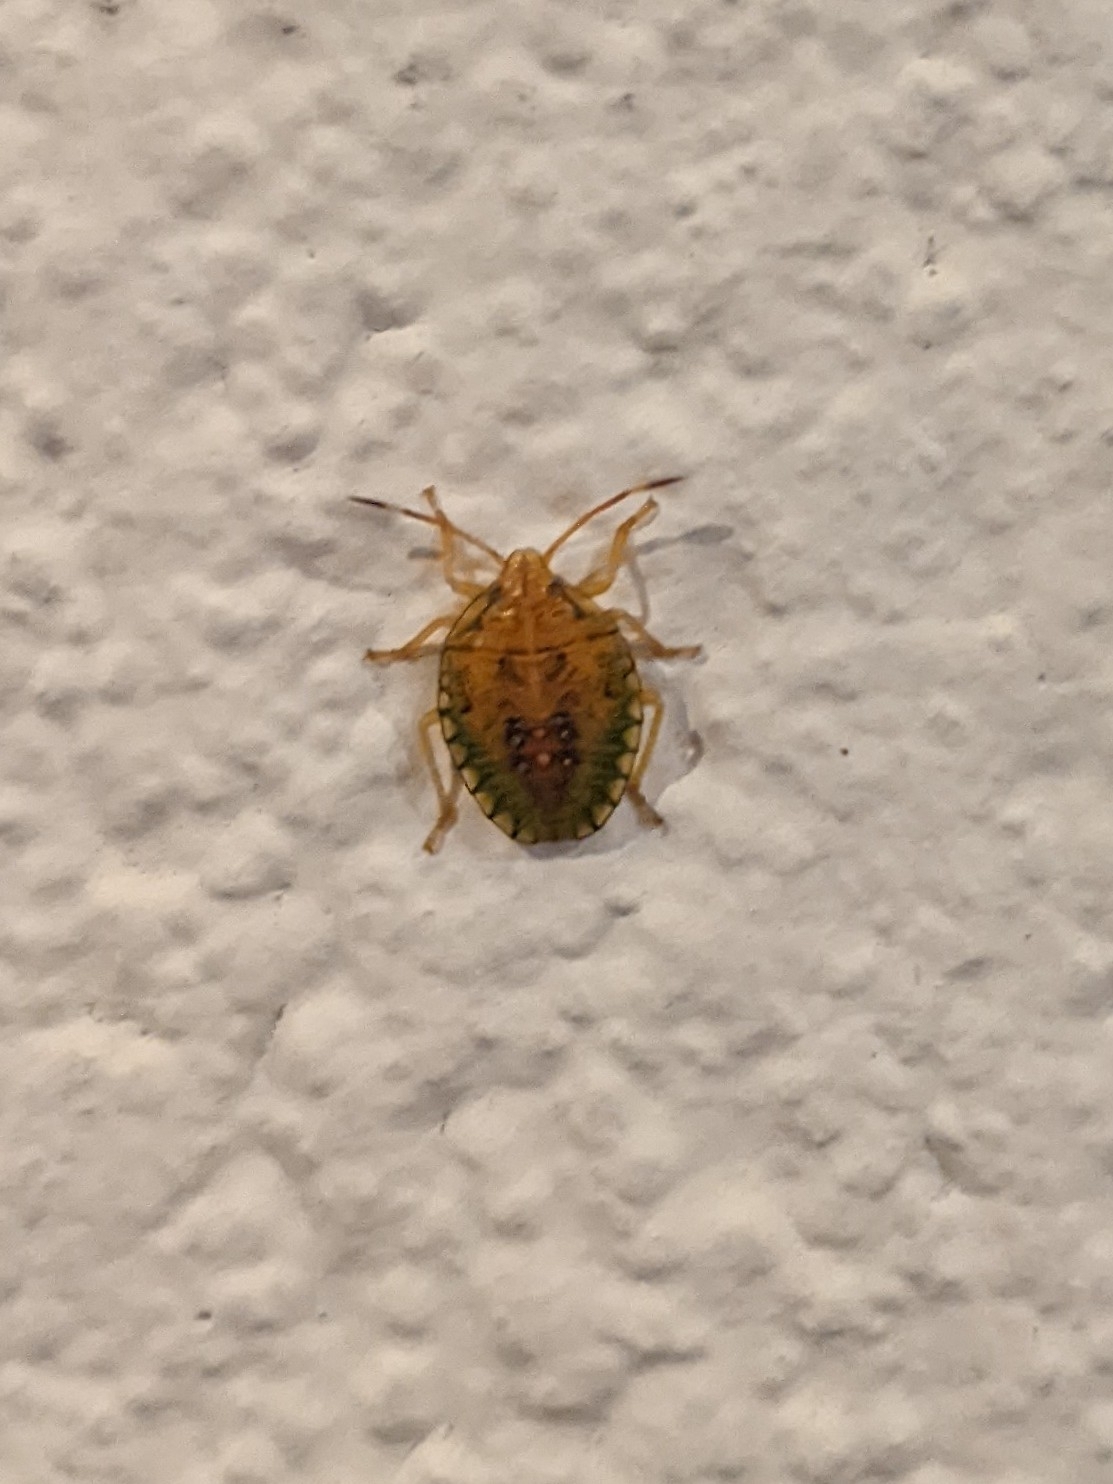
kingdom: Animalia
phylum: Arthropoda
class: Insecta
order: Hemiptera
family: Pentatomidae
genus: Edessa
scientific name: Edessa meditabunda
